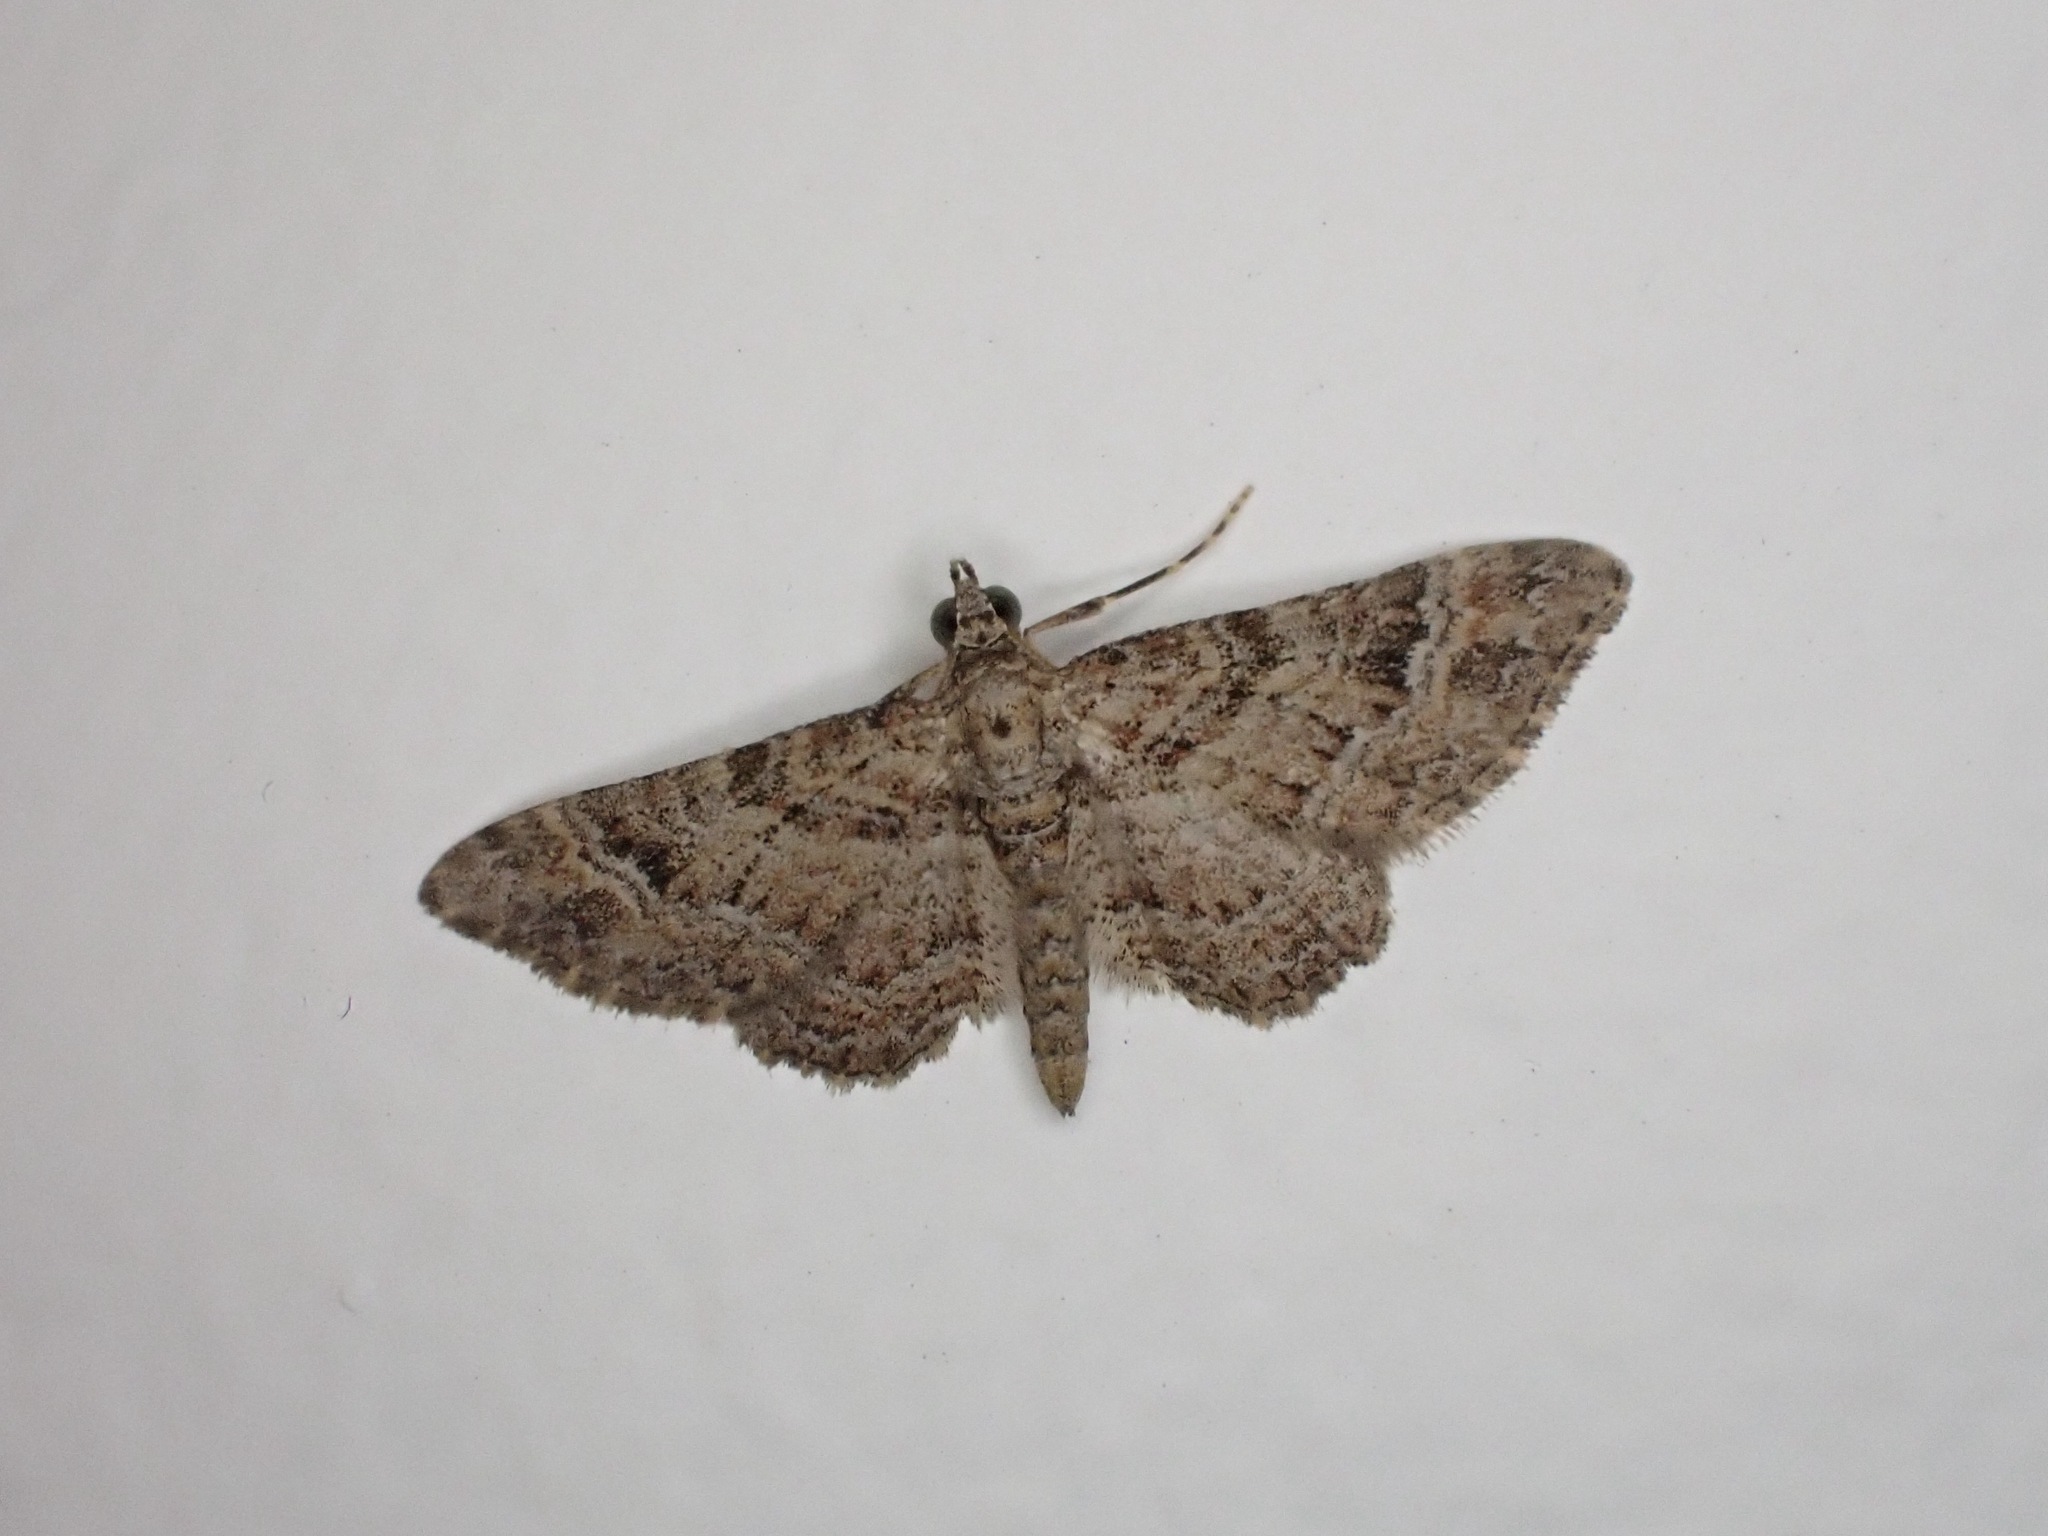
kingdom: Animalia
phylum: Arthropoda
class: Insecta
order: Lepidoptera
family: Geometridae
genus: Gymnoscelis
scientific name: Gymnoscelis rufifasciata
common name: Double-striped pug
